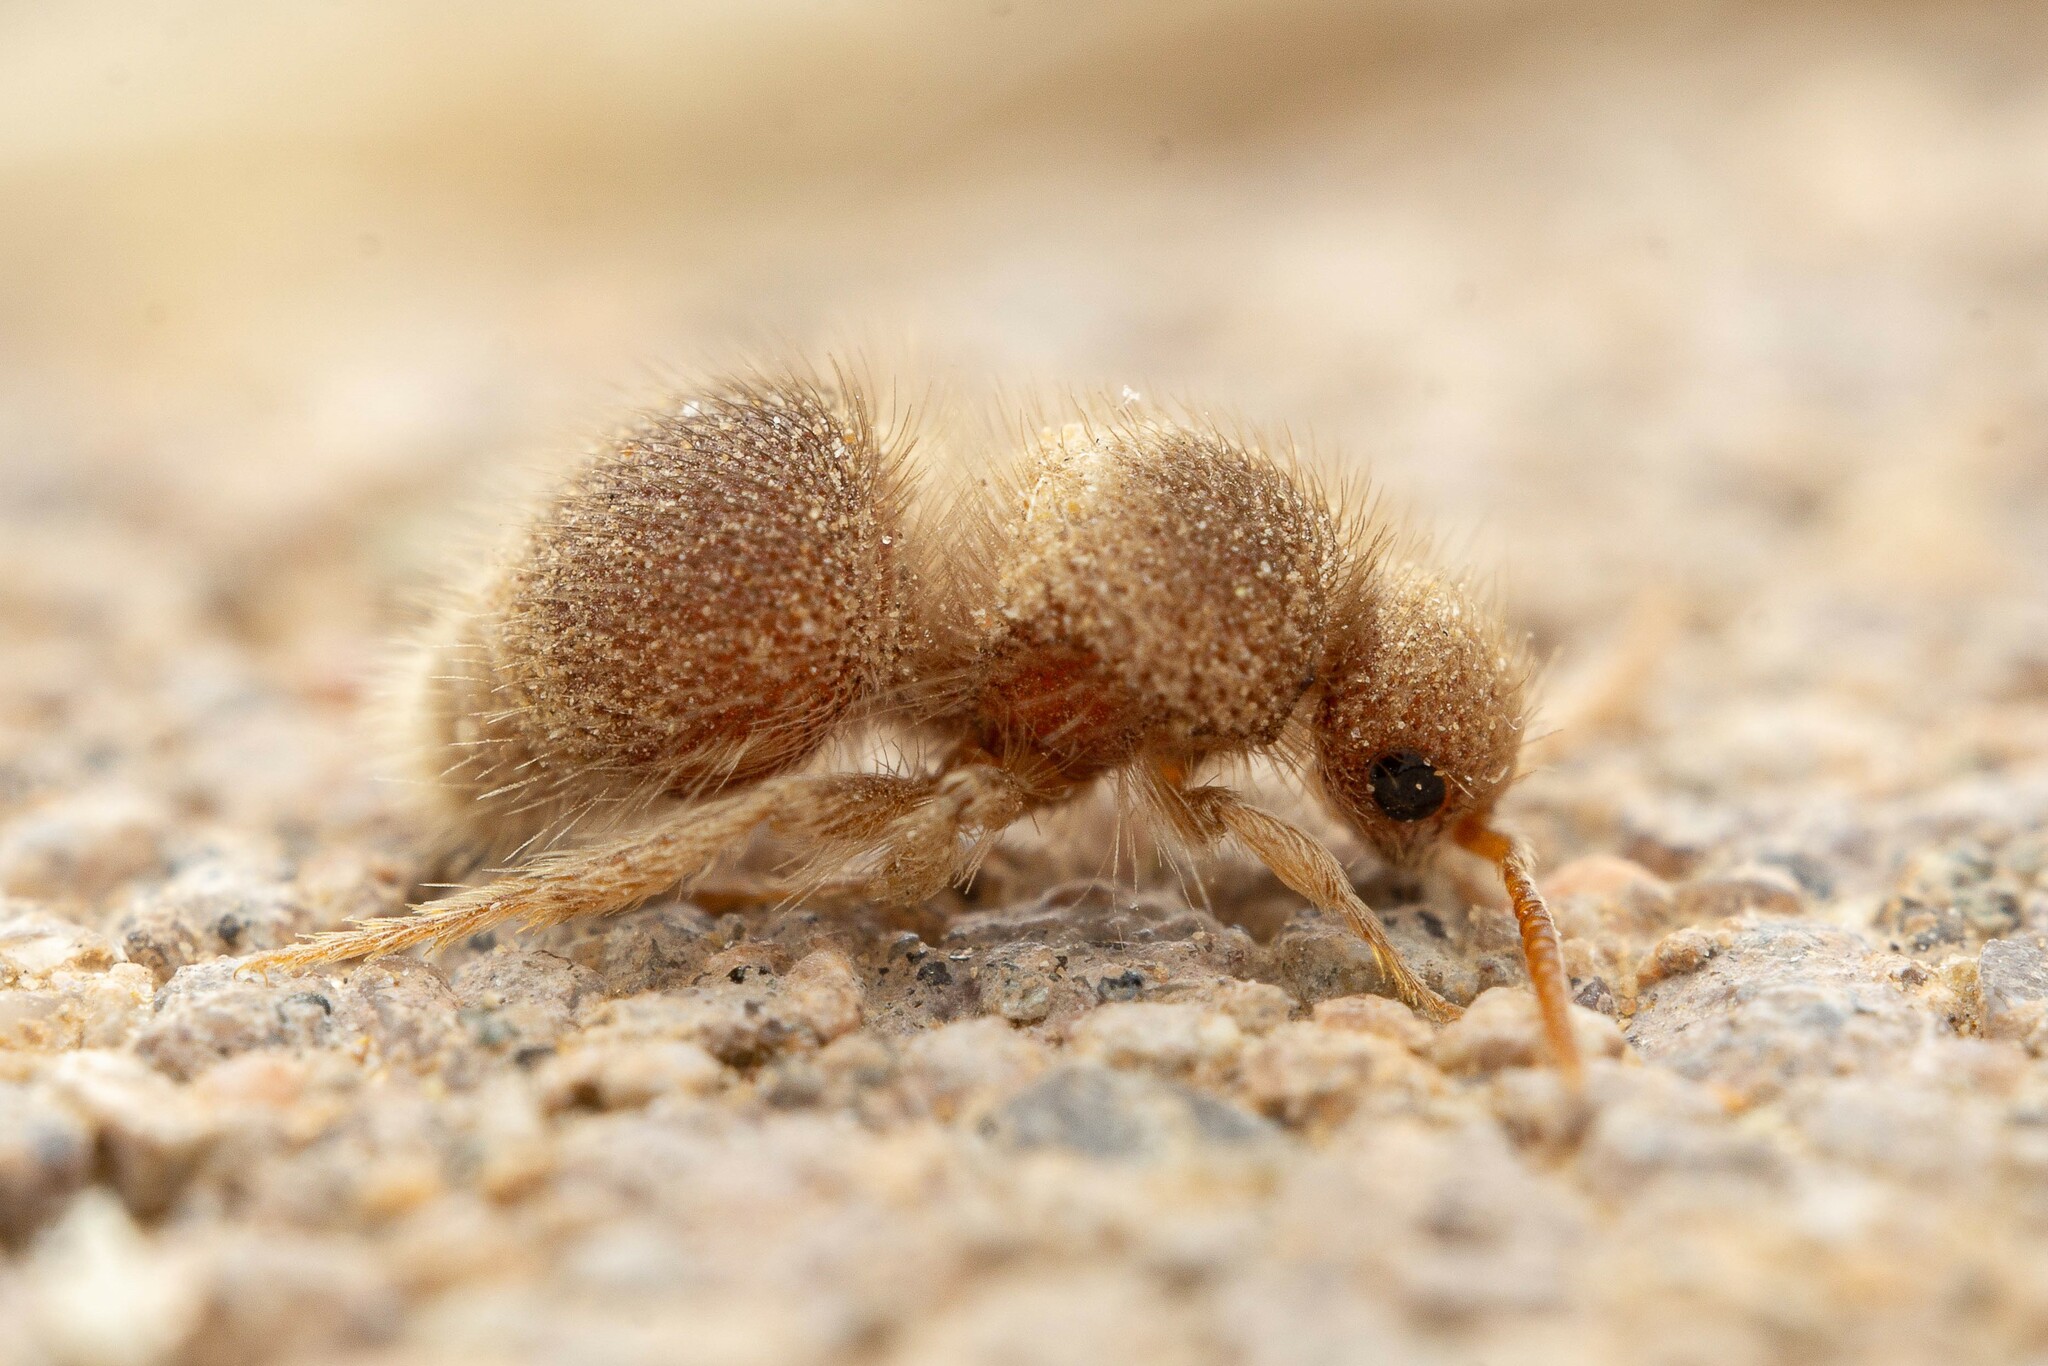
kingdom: Animalia
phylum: Arthropoda
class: Insecta
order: Hymenoptera
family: Mutillidae
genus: Odontophotopsis
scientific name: Odontophotopsis
